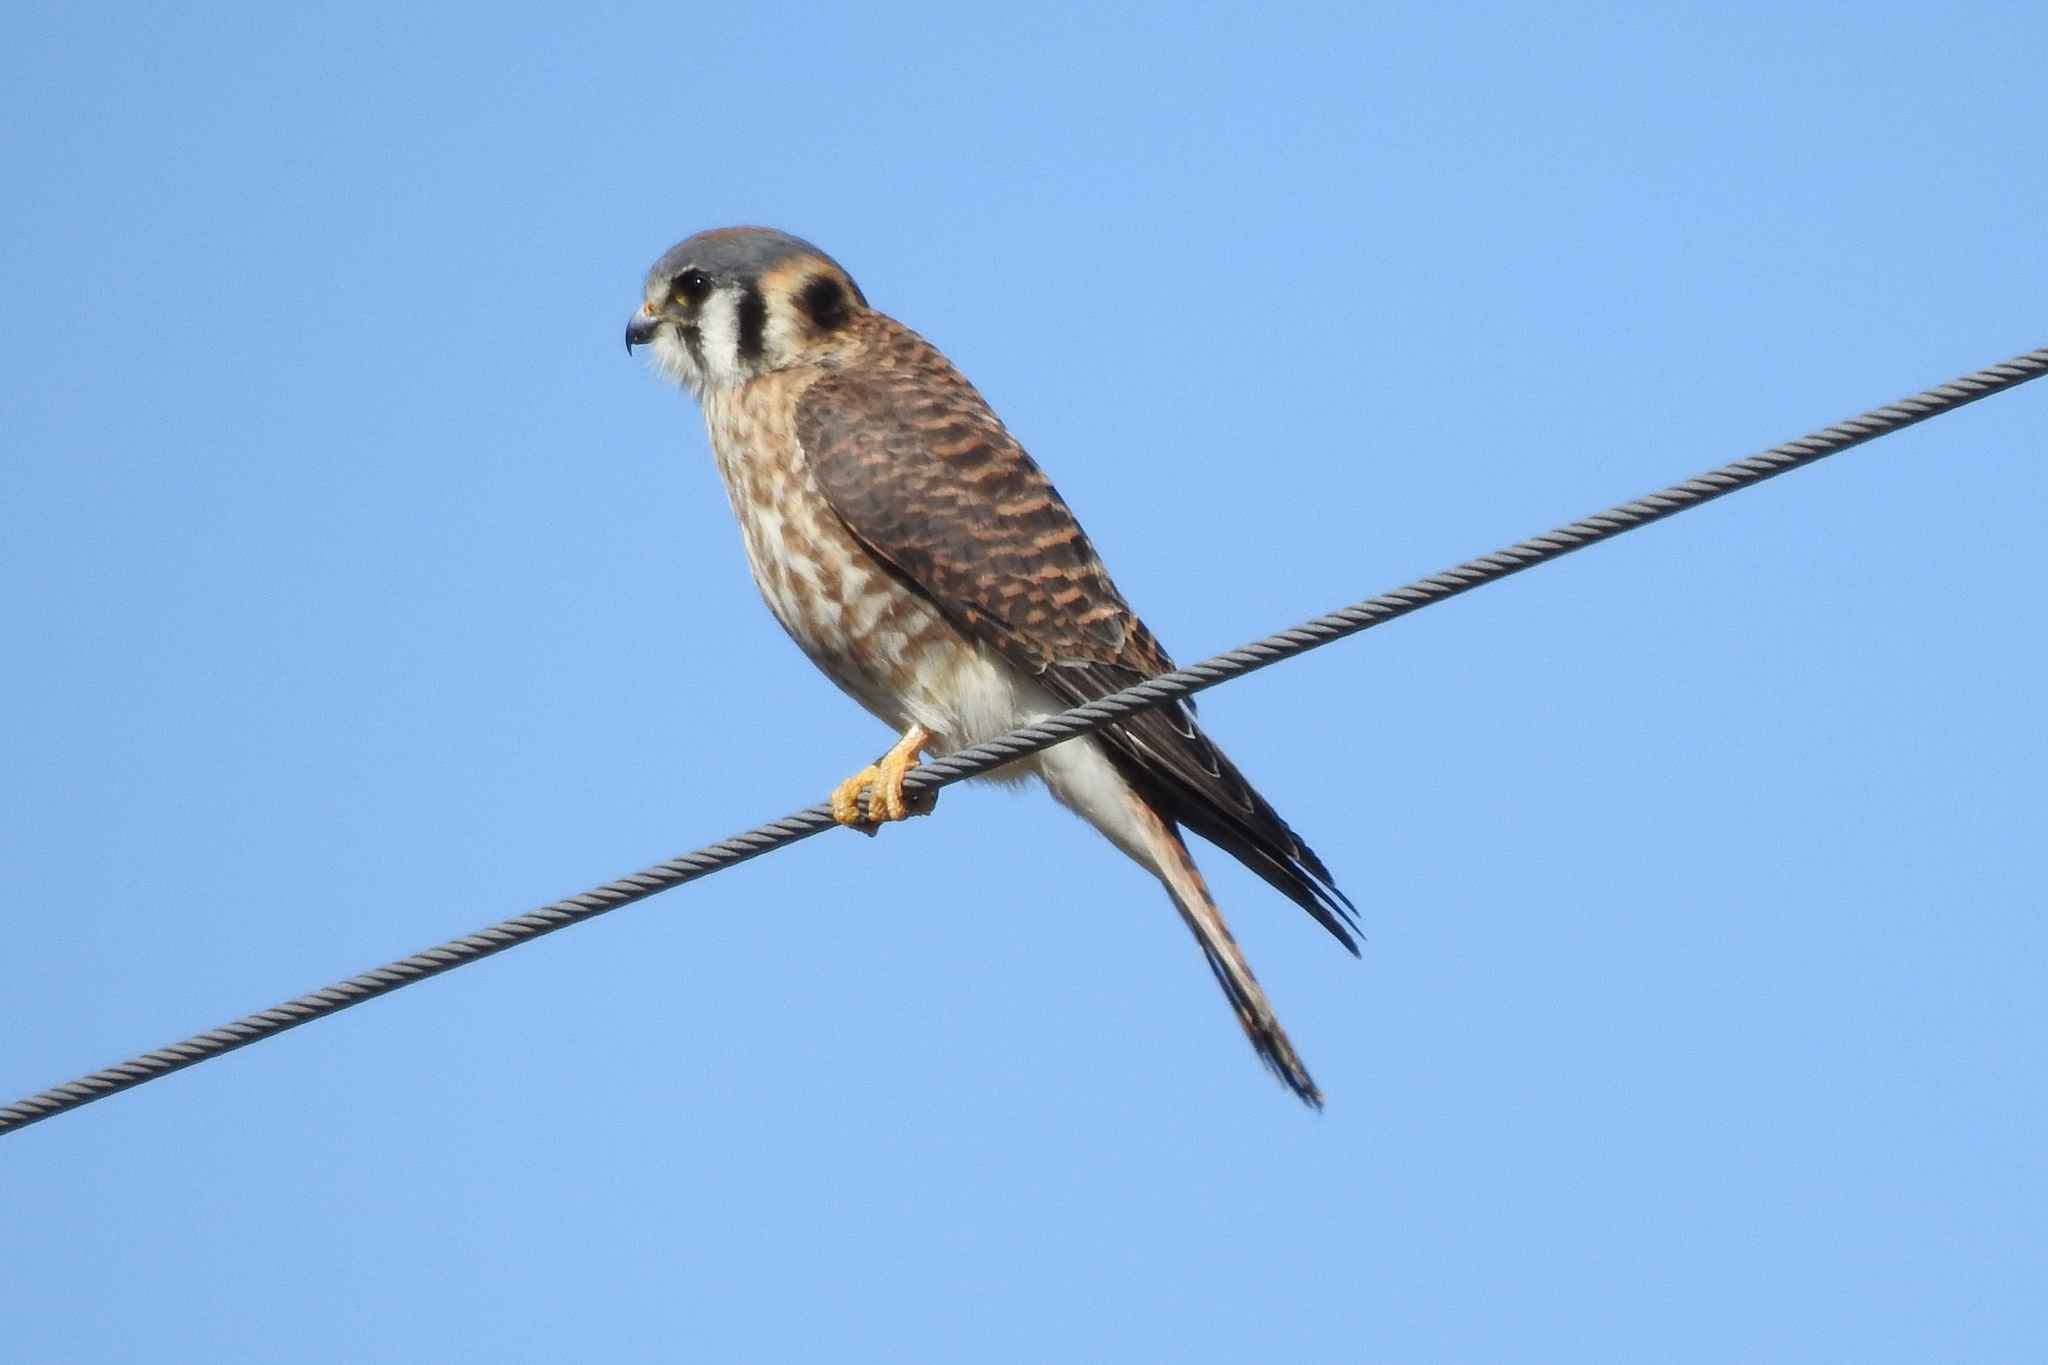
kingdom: Animalia
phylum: Chordata
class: Aves
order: Falconiformes
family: Falconidae
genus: Falco
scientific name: Falco sparverius
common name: American kestrel
